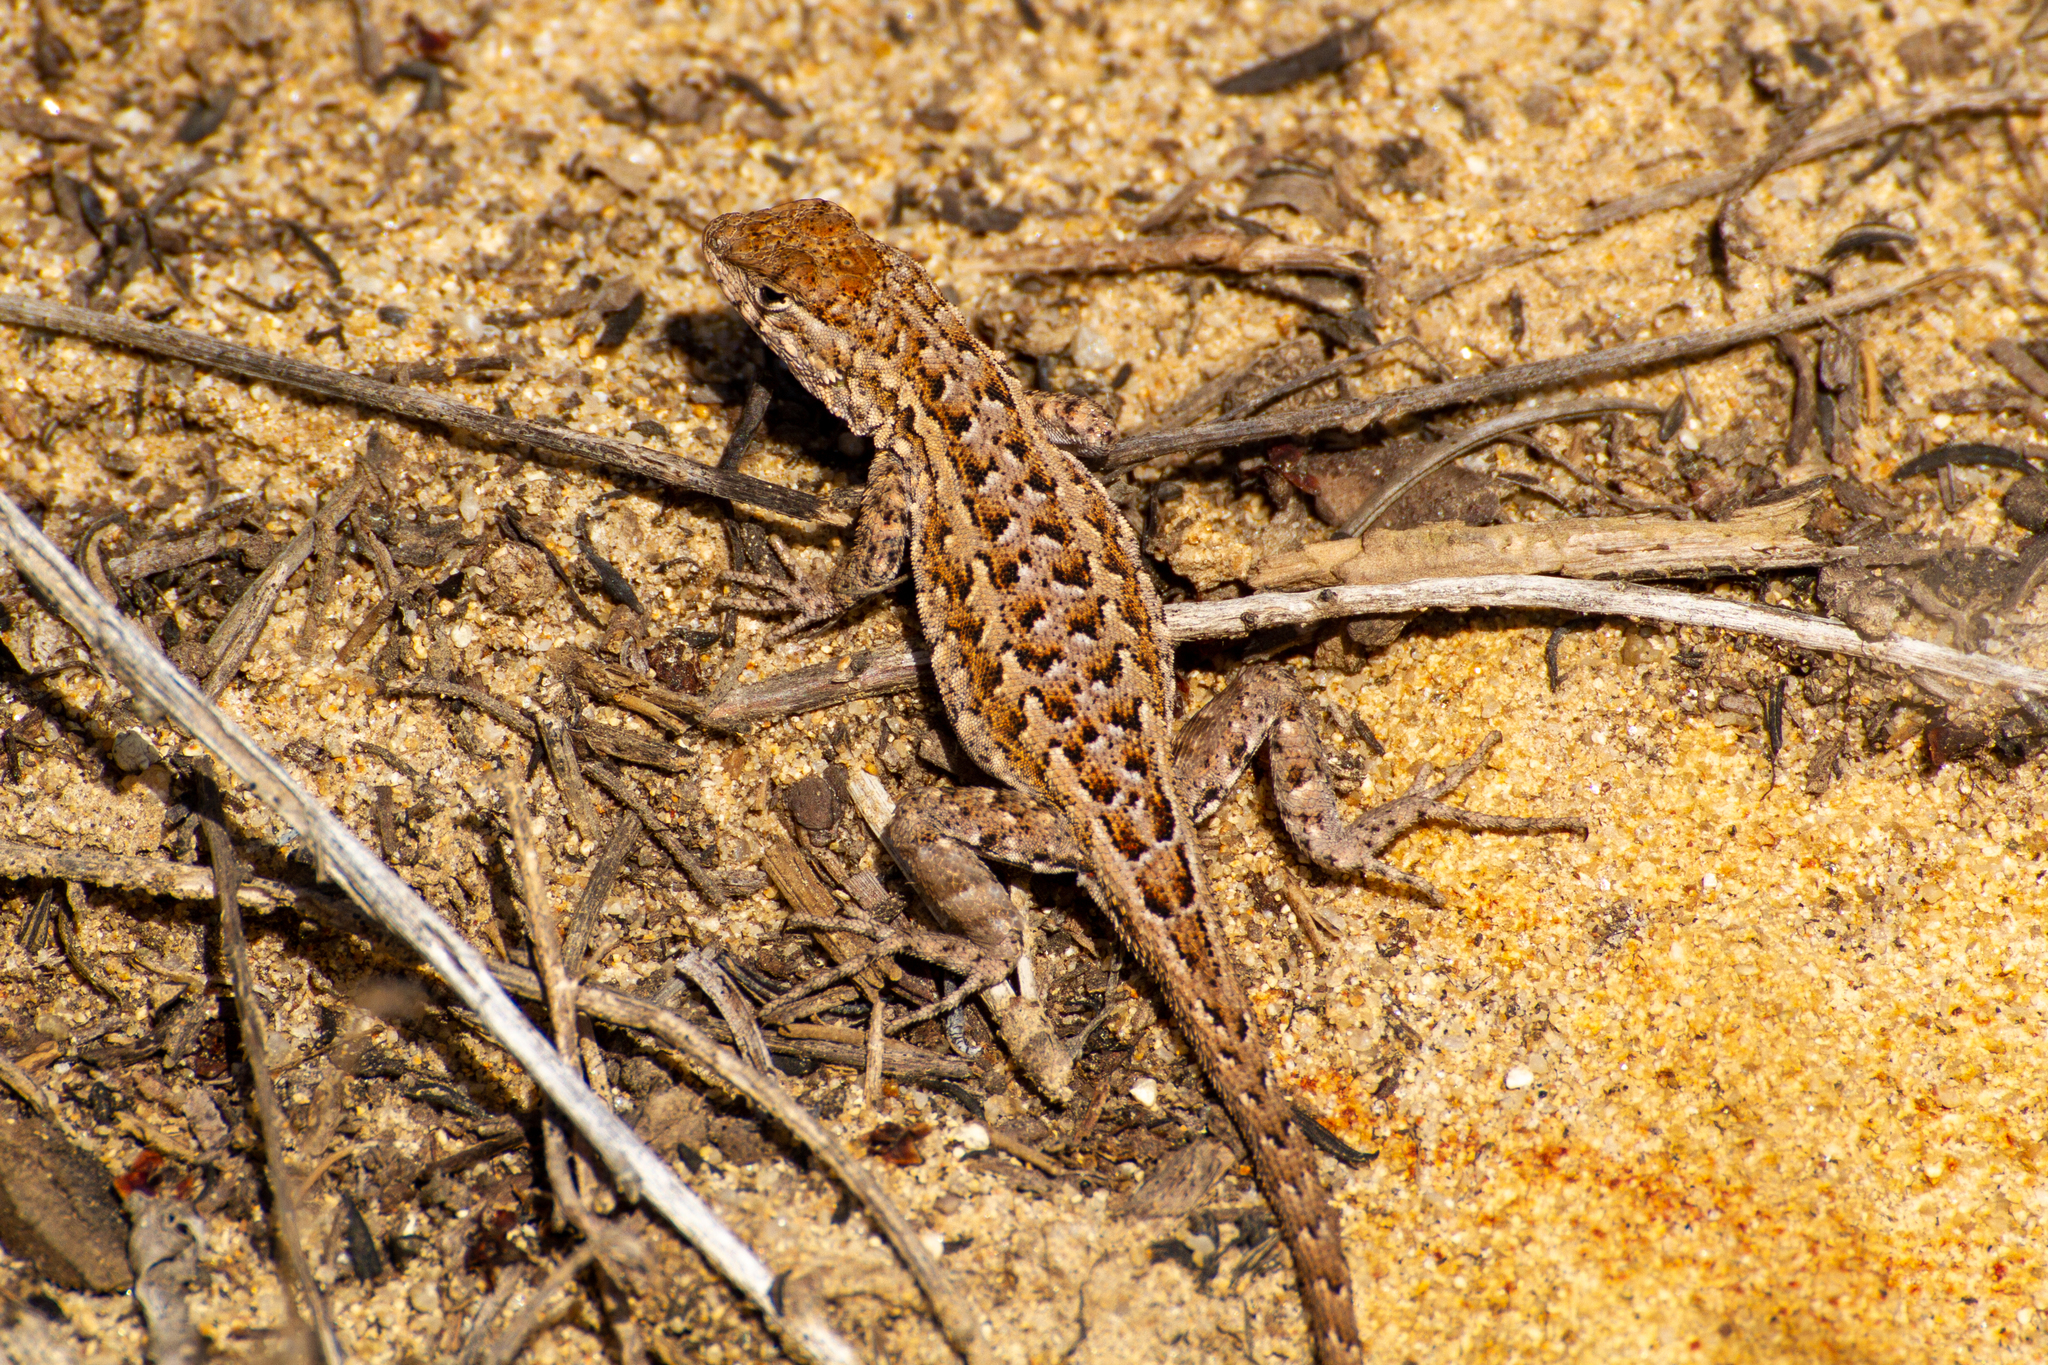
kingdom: Animalia
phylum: Chordata
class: Squamata
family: Phrynosomatidae
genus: Uta
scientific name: Uta stansburiana
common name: Side-blotched lizard
